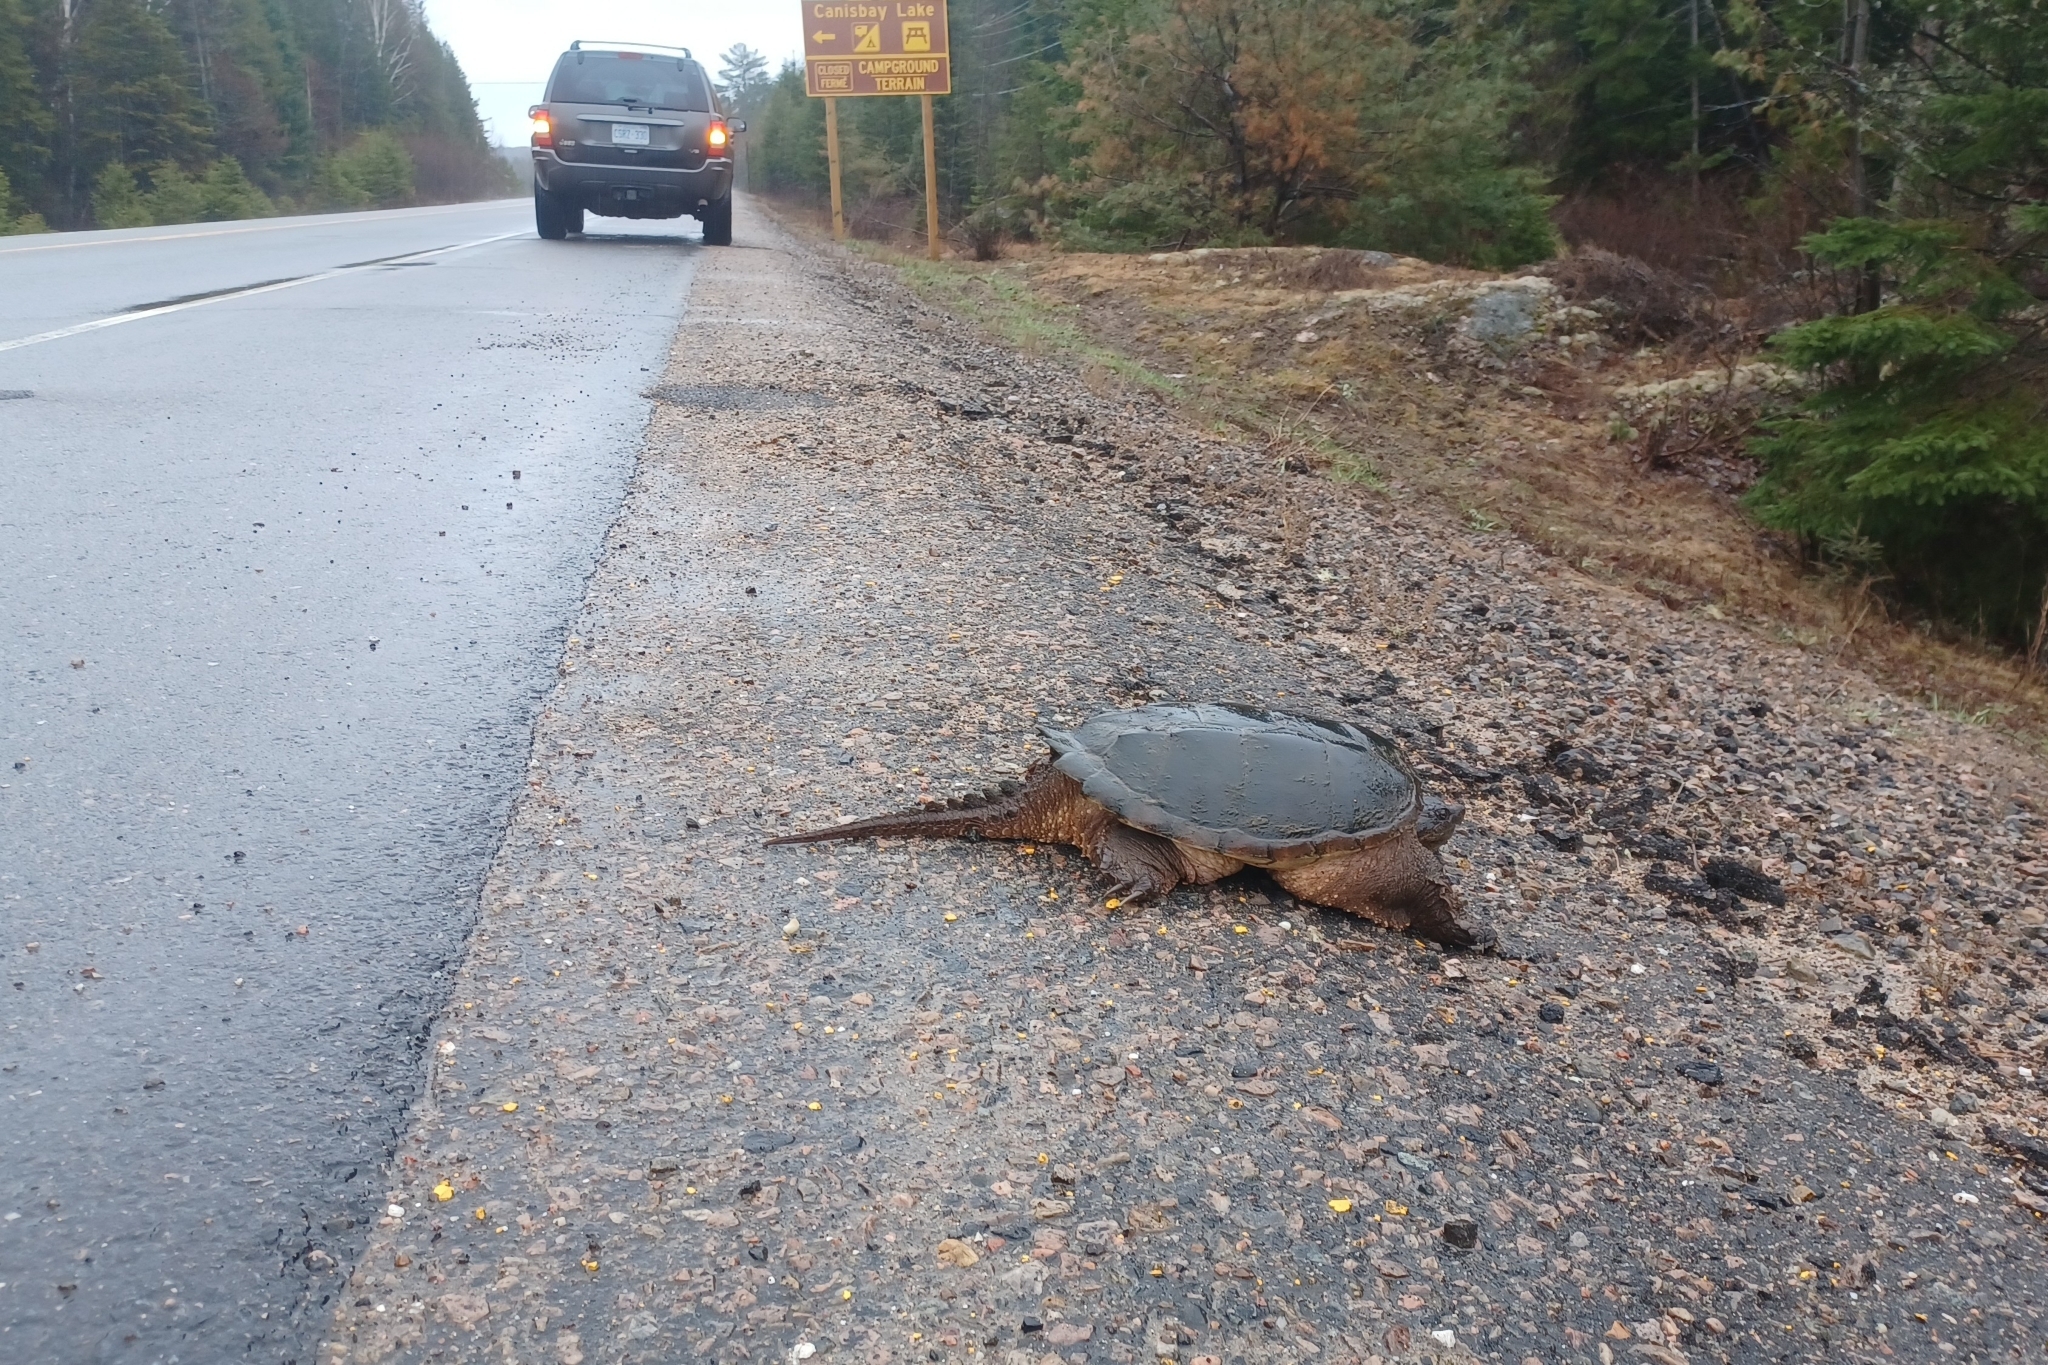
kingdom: Animalia
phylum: Chordata
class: Testudines
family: Chelydridae
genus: Chelydra
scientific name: Chelydra serpentina
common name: Common snapping turtle
